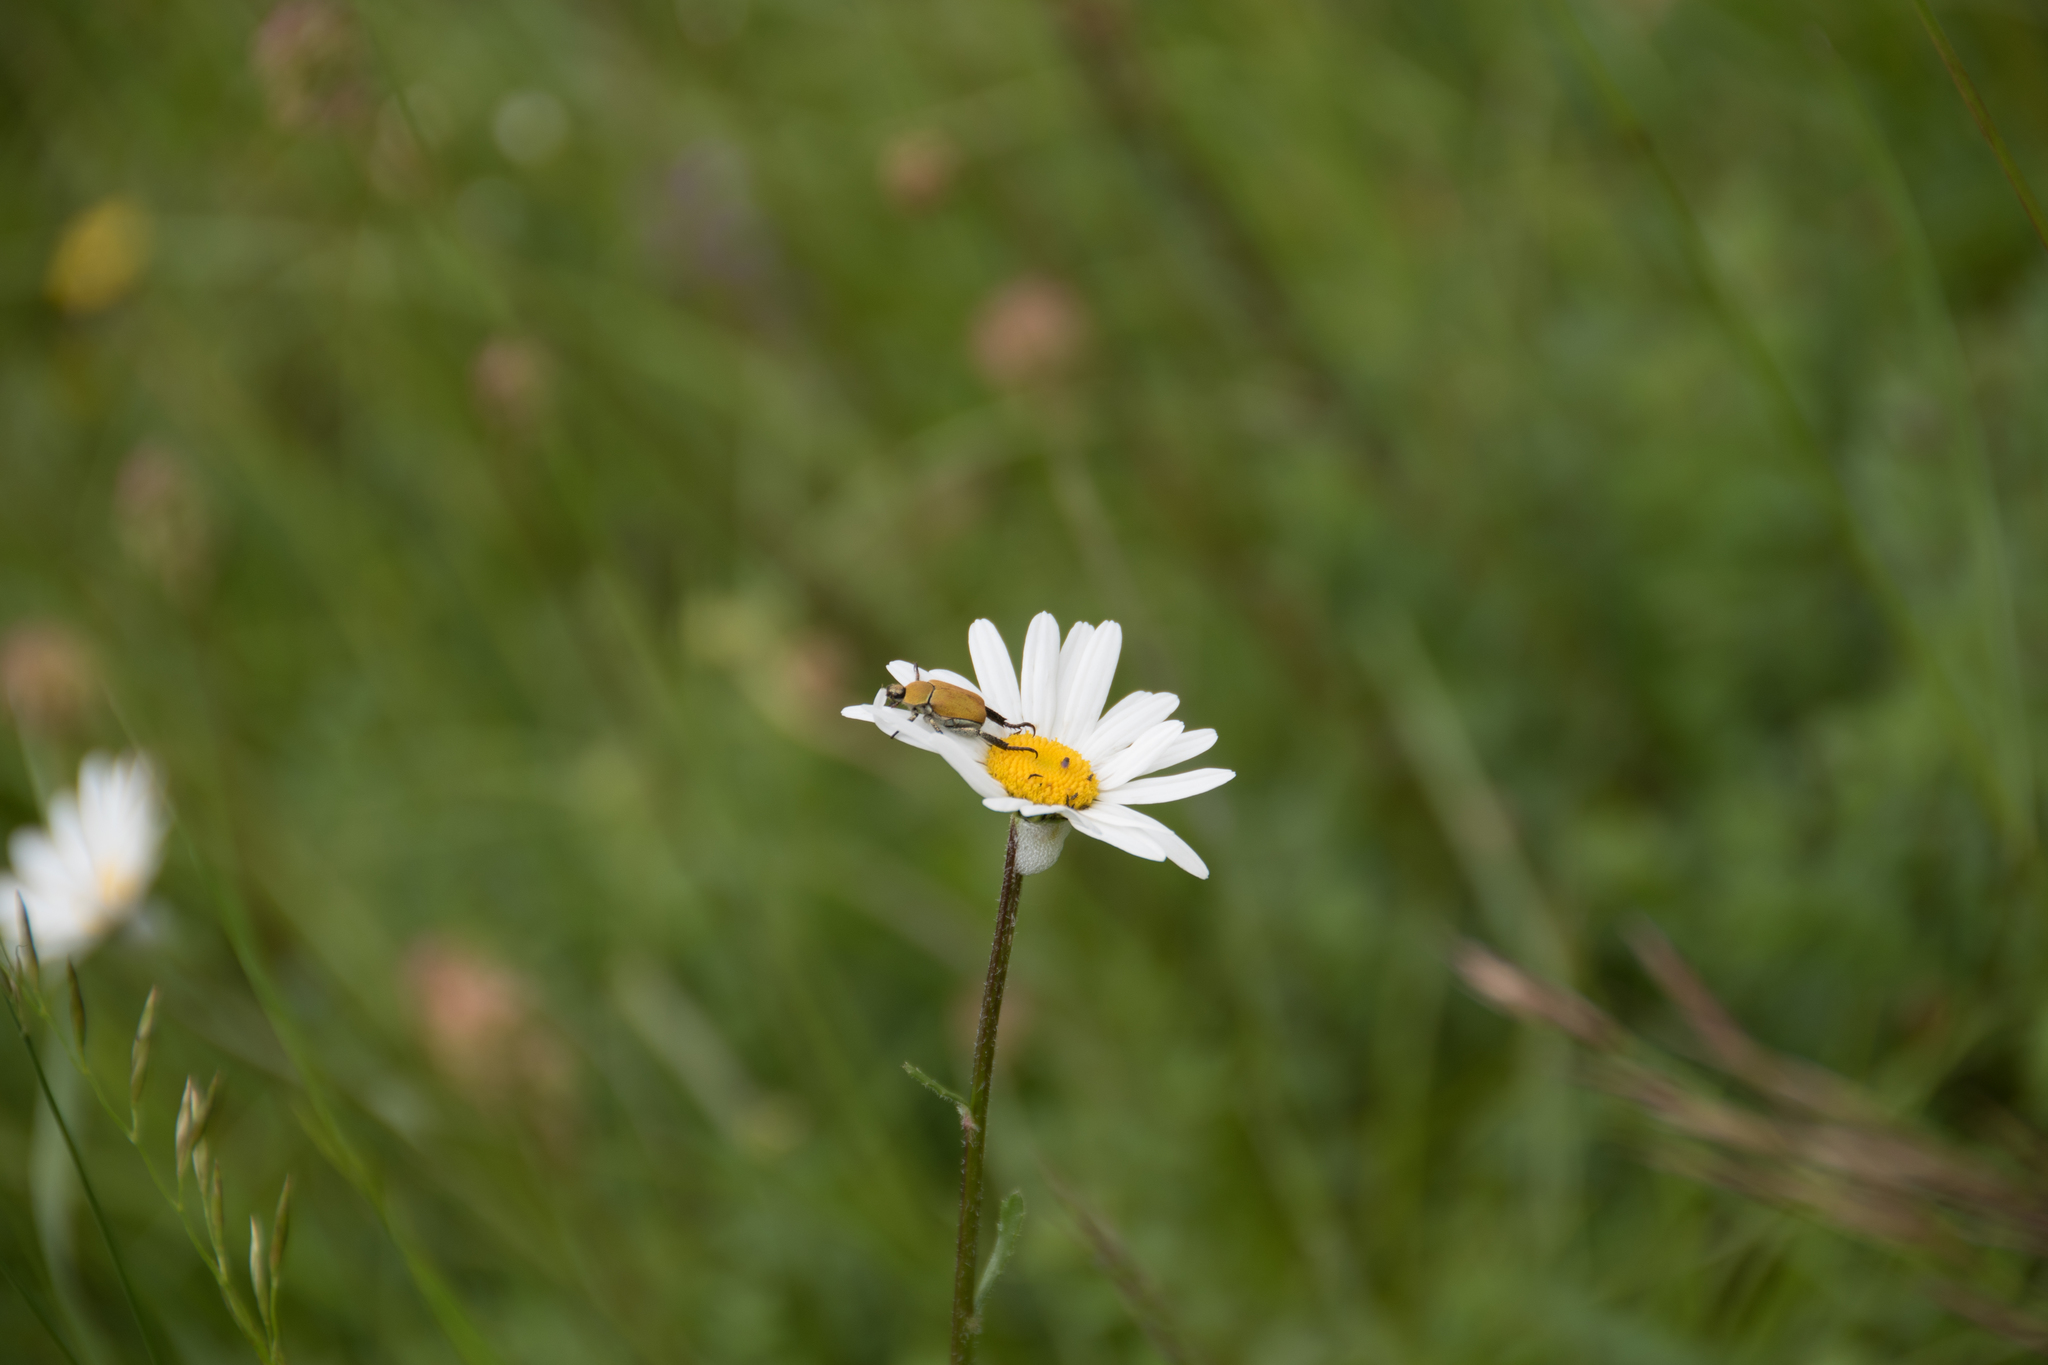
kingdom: Animalia
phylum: Arthropoda
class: Insecta
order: Coleoptera
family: Scarabaeidae
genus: Hoplia
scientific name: Hoplia argentea
